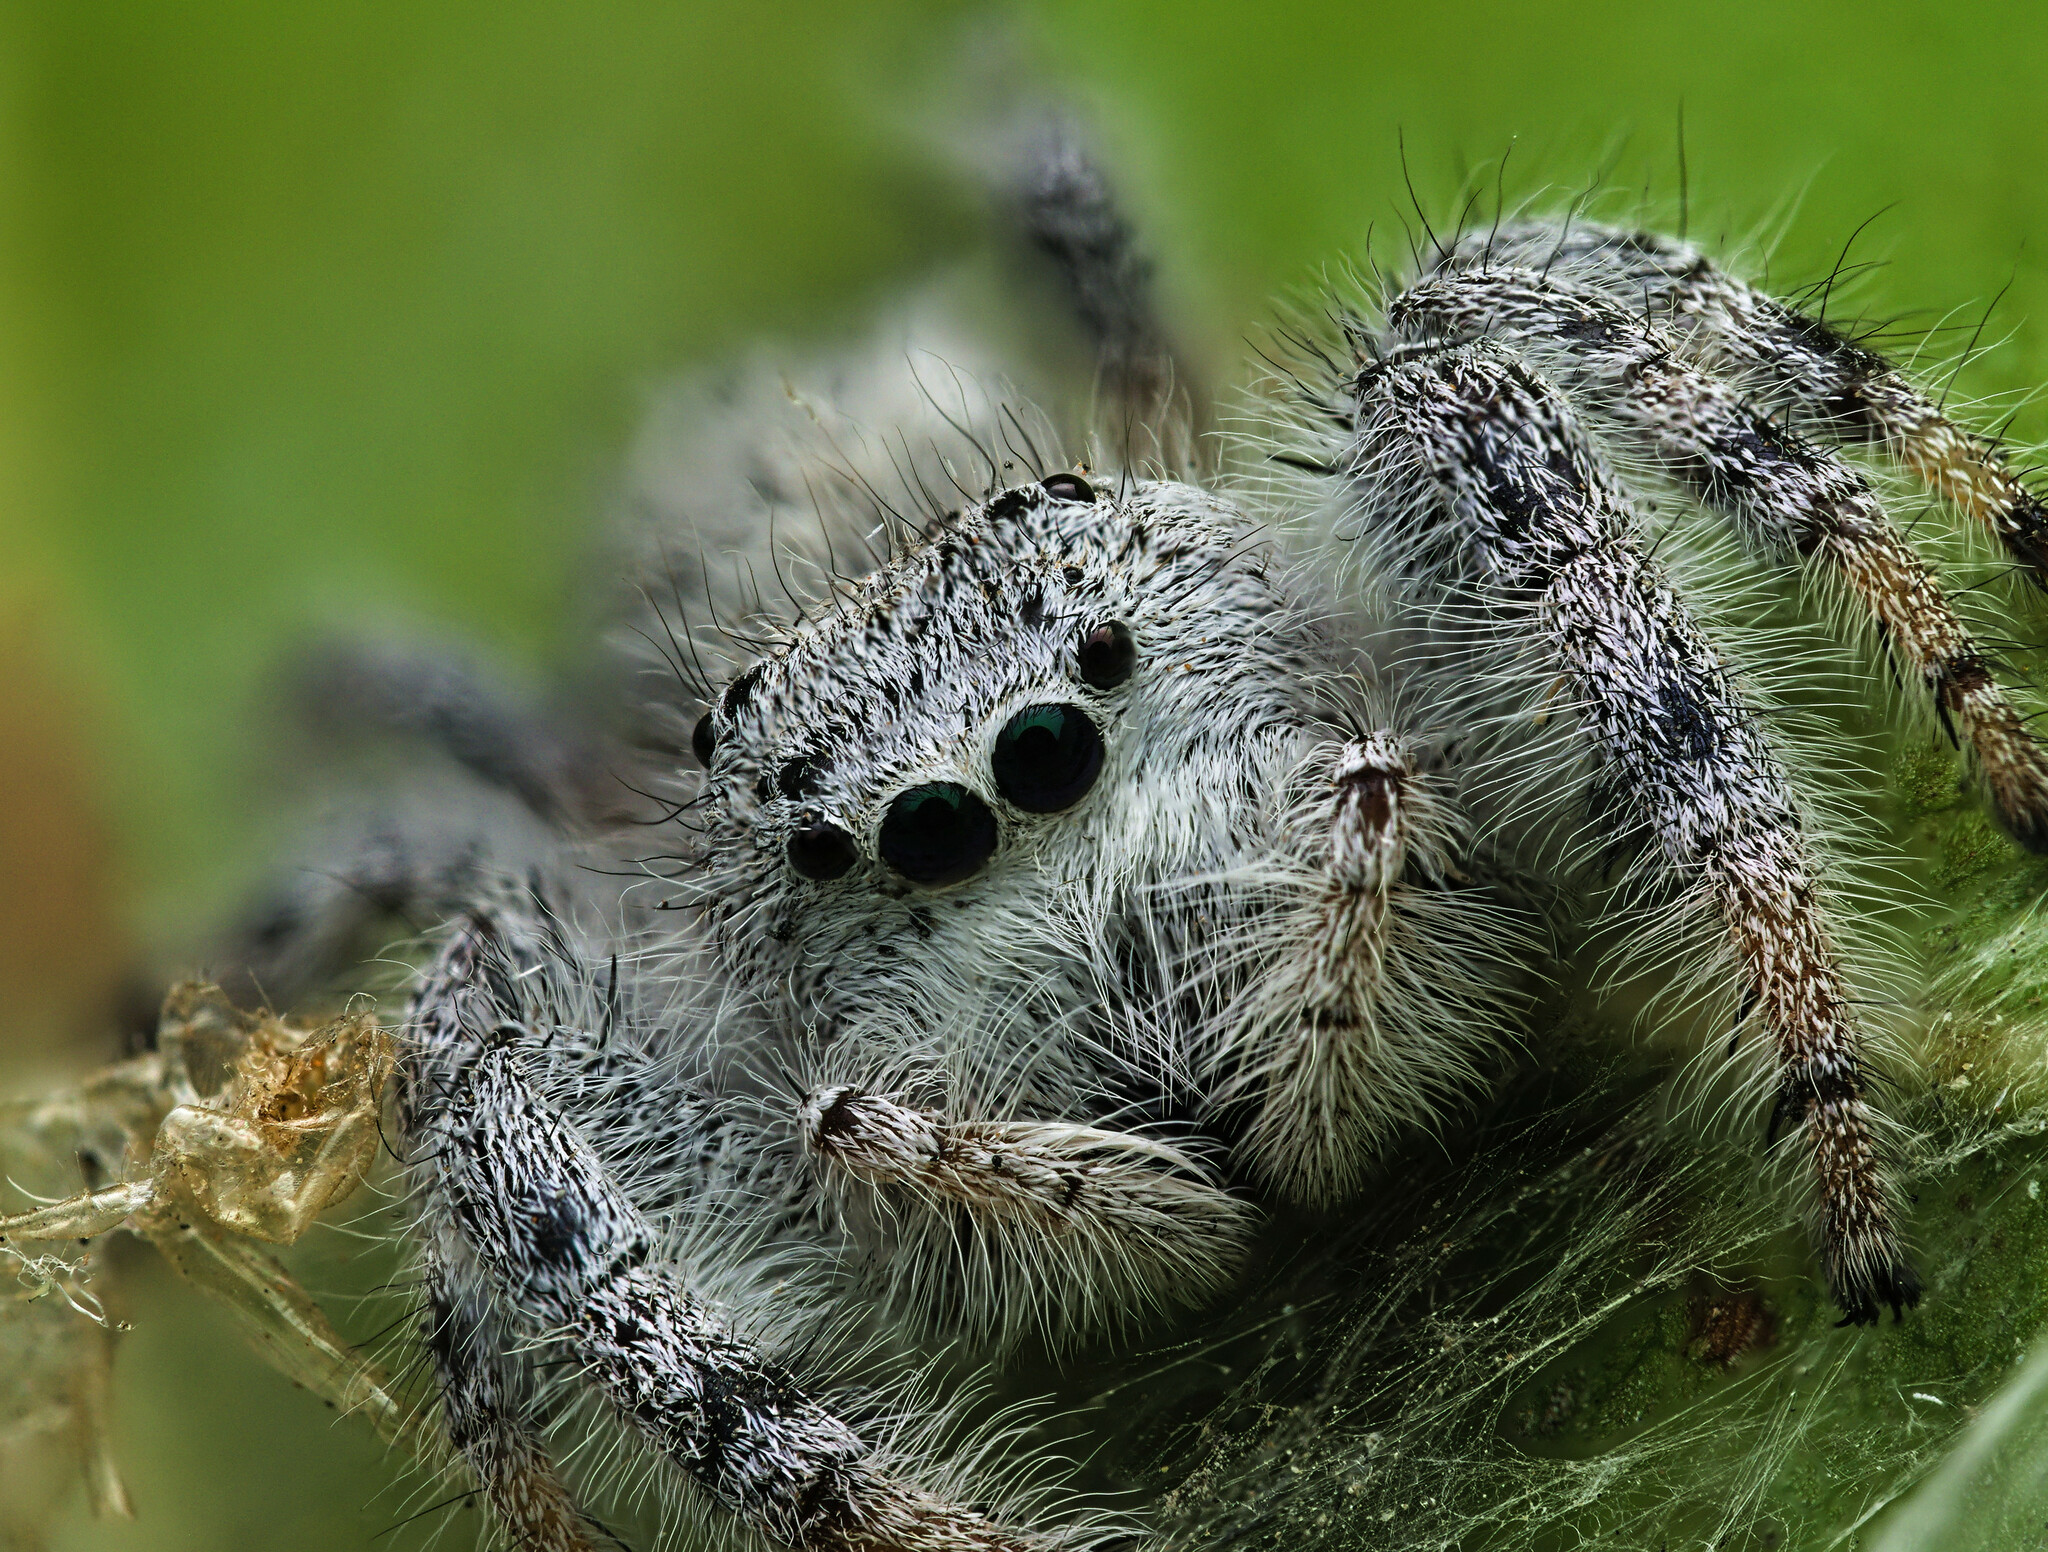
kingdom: Animalia
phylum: Arthropoda
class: Arachnida
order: Araneae
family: Salticidae
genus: Paraphidippus
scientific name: Paraphidippus fartilis
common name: Jumping spiders
